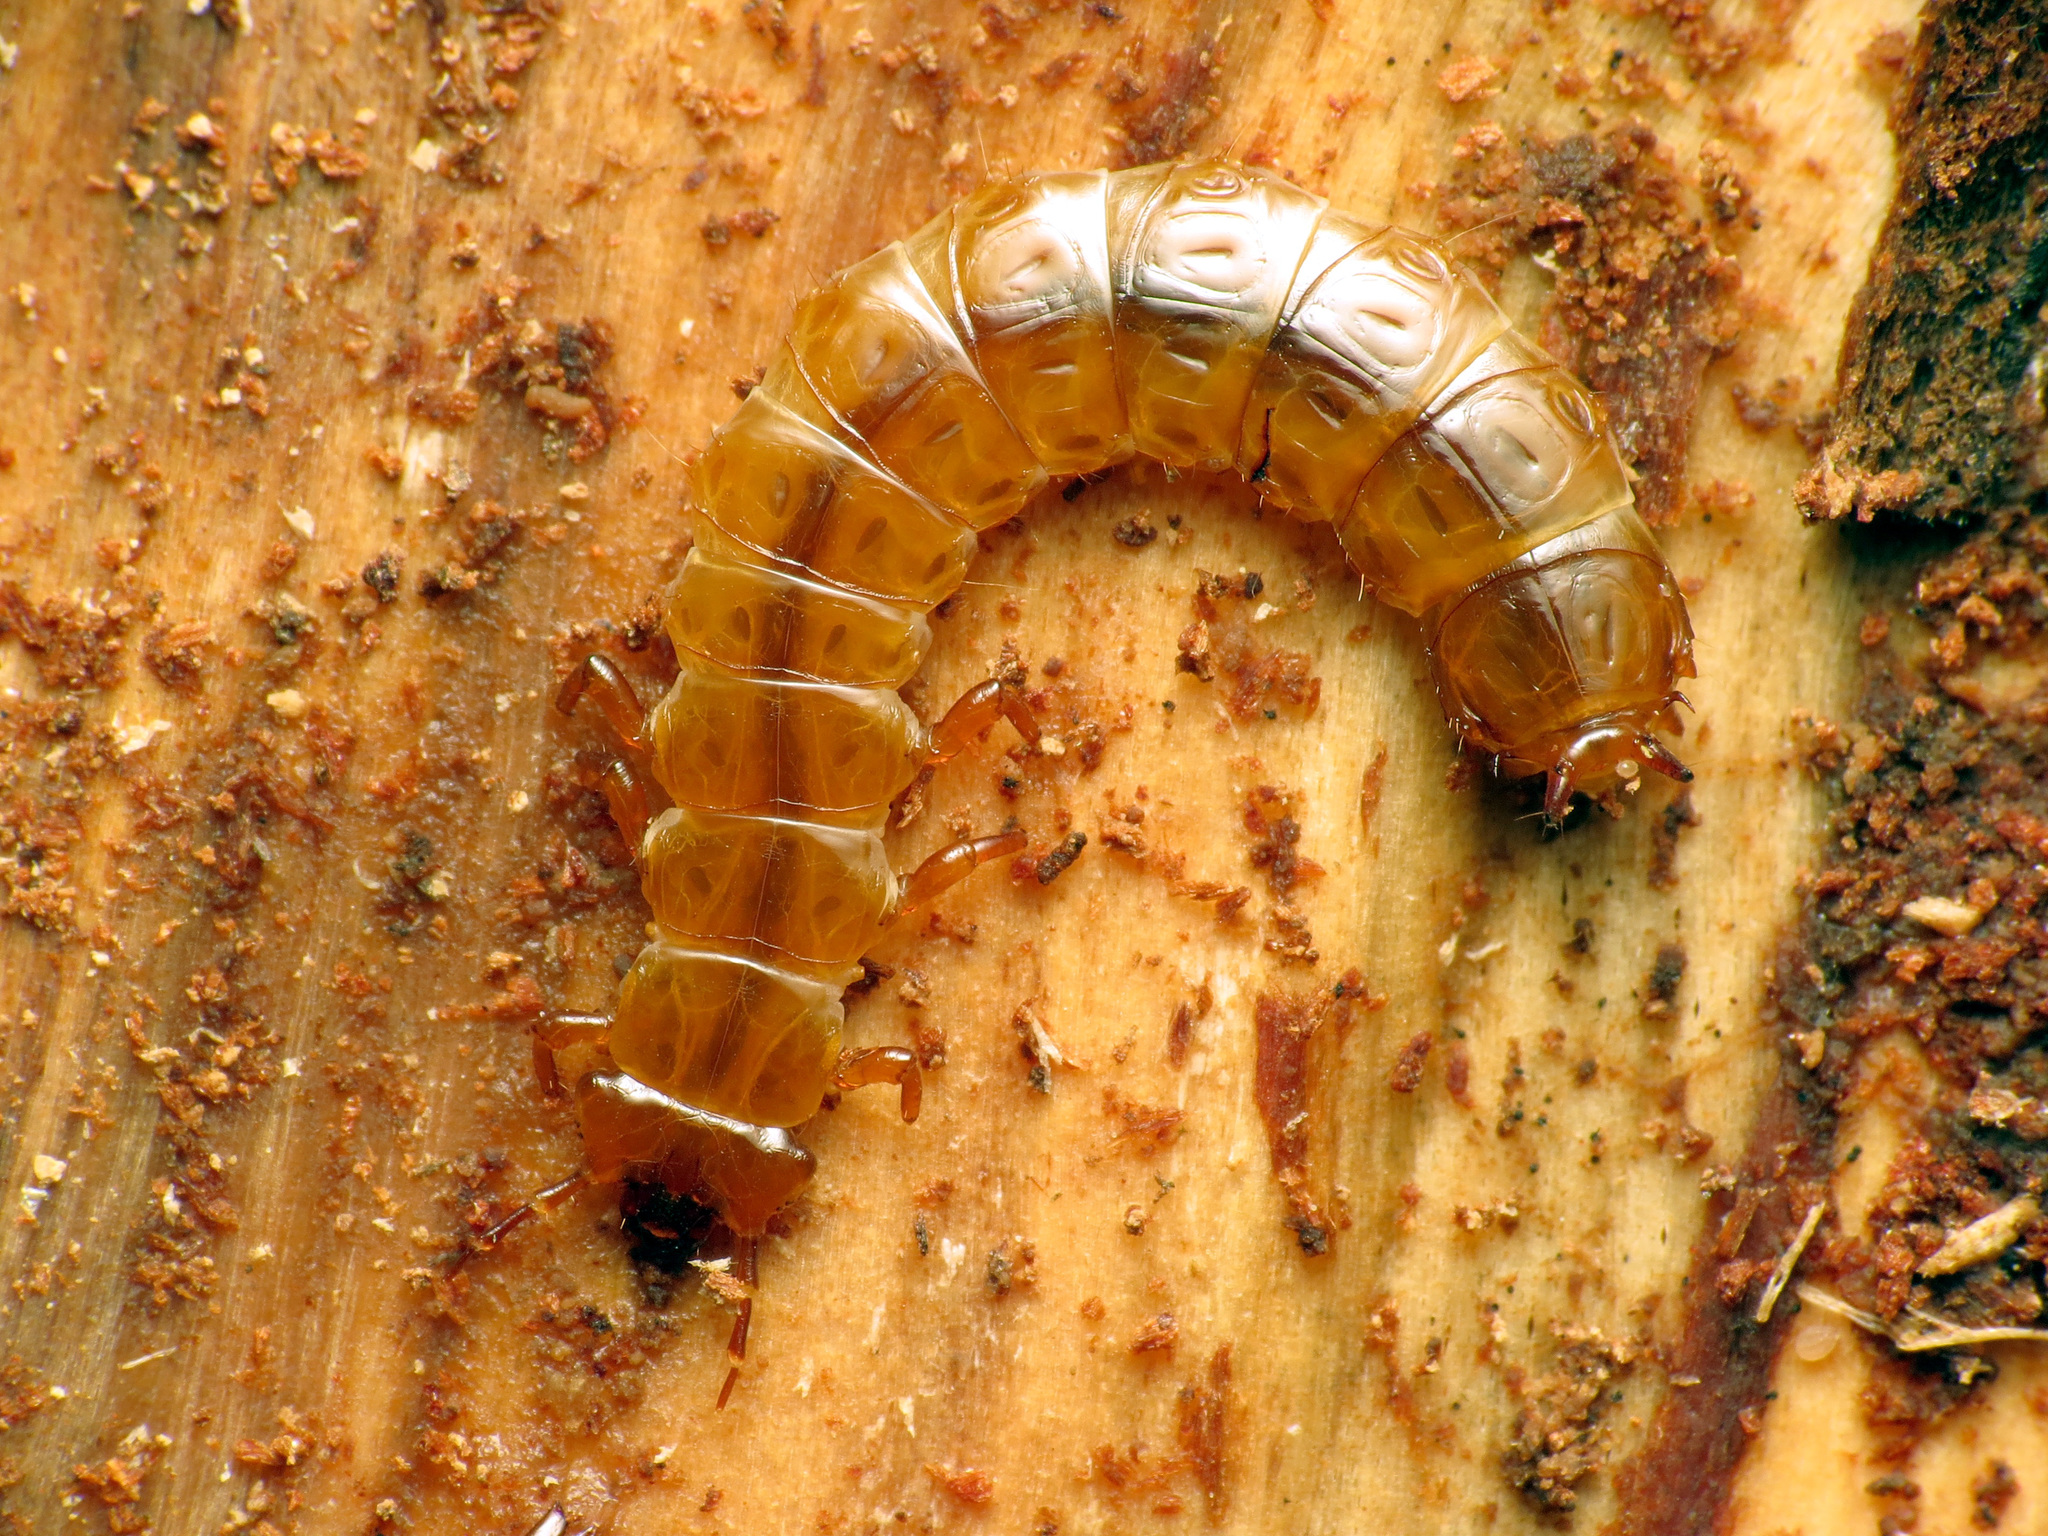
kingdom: Animalia
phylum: Arthropoda
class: Insecta
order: Coleoptera
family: Cucujidae
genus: Cucujus
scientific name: Cucujus clavipes
